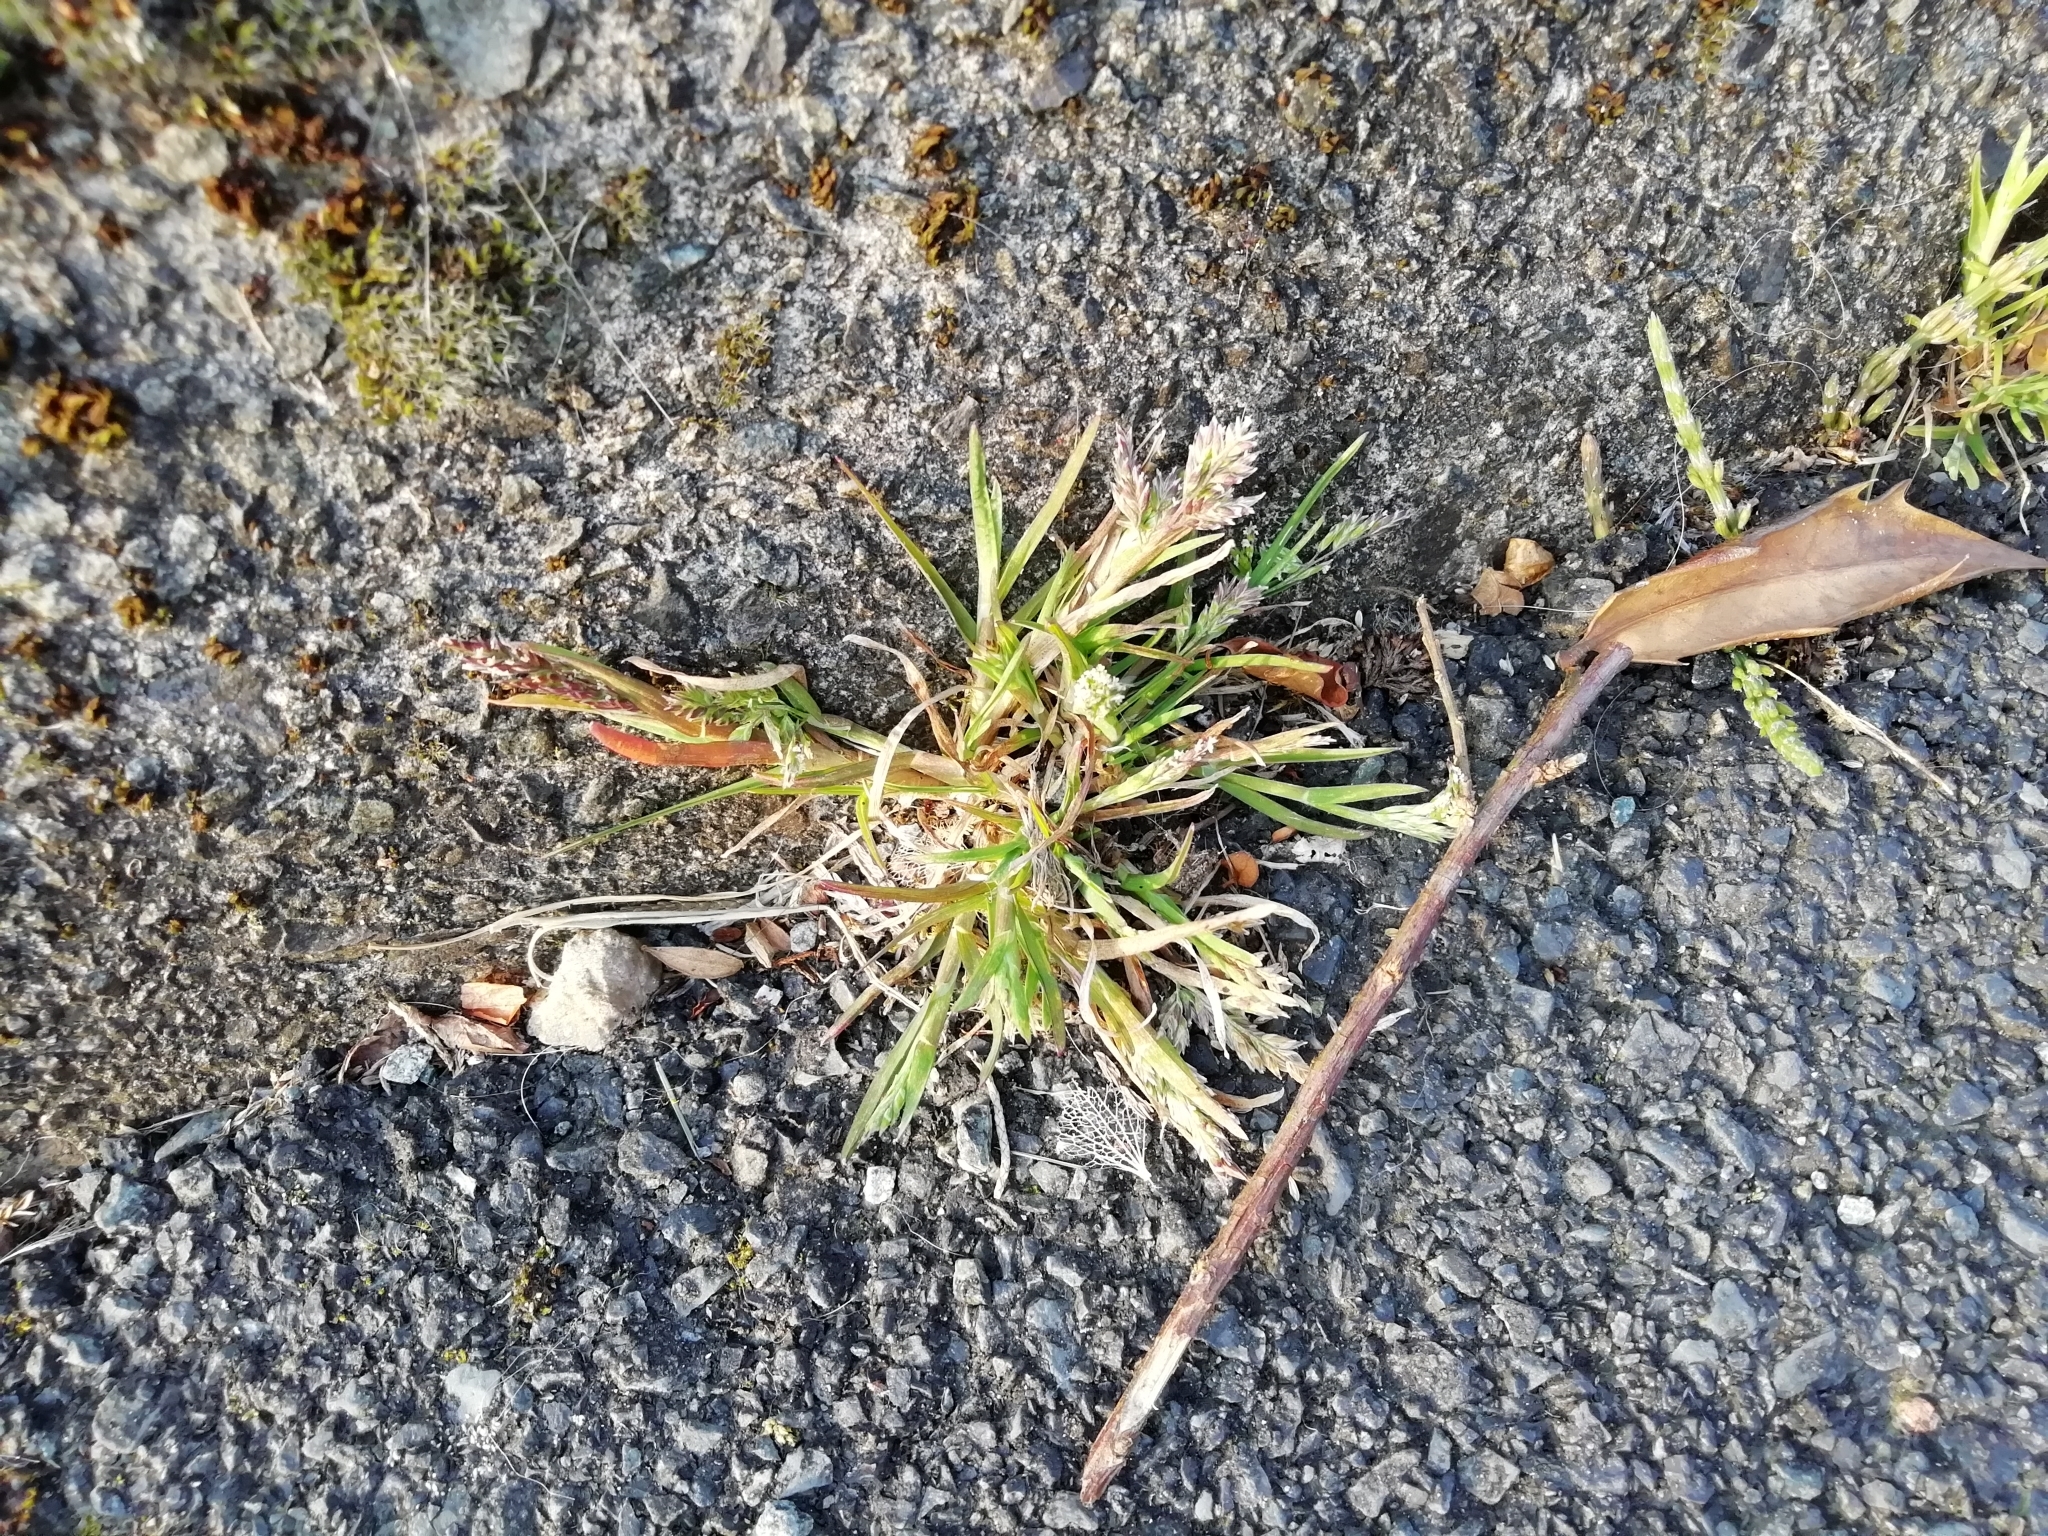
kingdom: Plantae
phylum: Tracheophyta
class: Liliopsida
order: Poales
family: Poaceae
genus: Poa
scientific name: Poa annua
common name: Annual bluegrass
